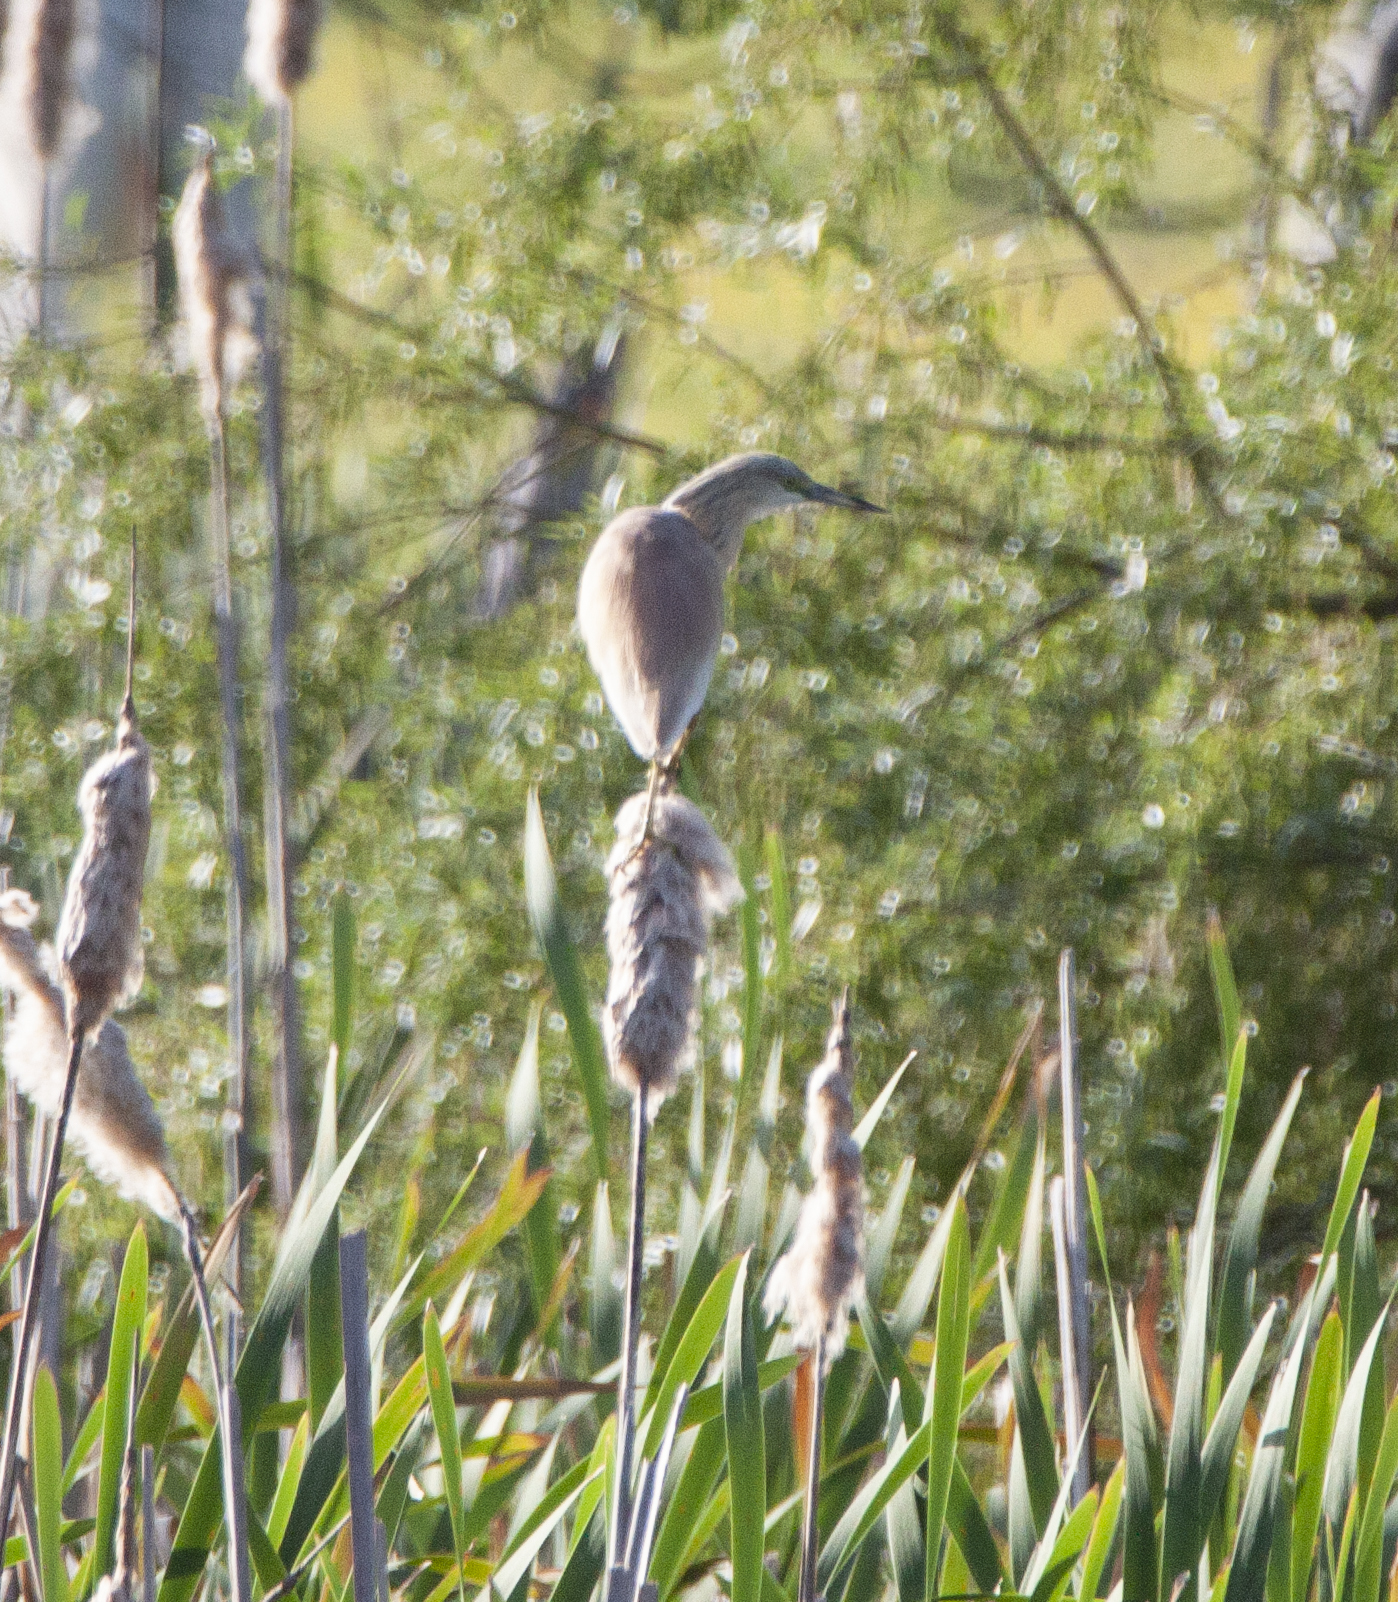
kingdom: Animalia
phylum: Chordata
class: Aves
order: Pelecaniformes
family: Ardeidae
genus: Ardeola
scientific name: Ardeola ralloides
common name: Squacco heron
